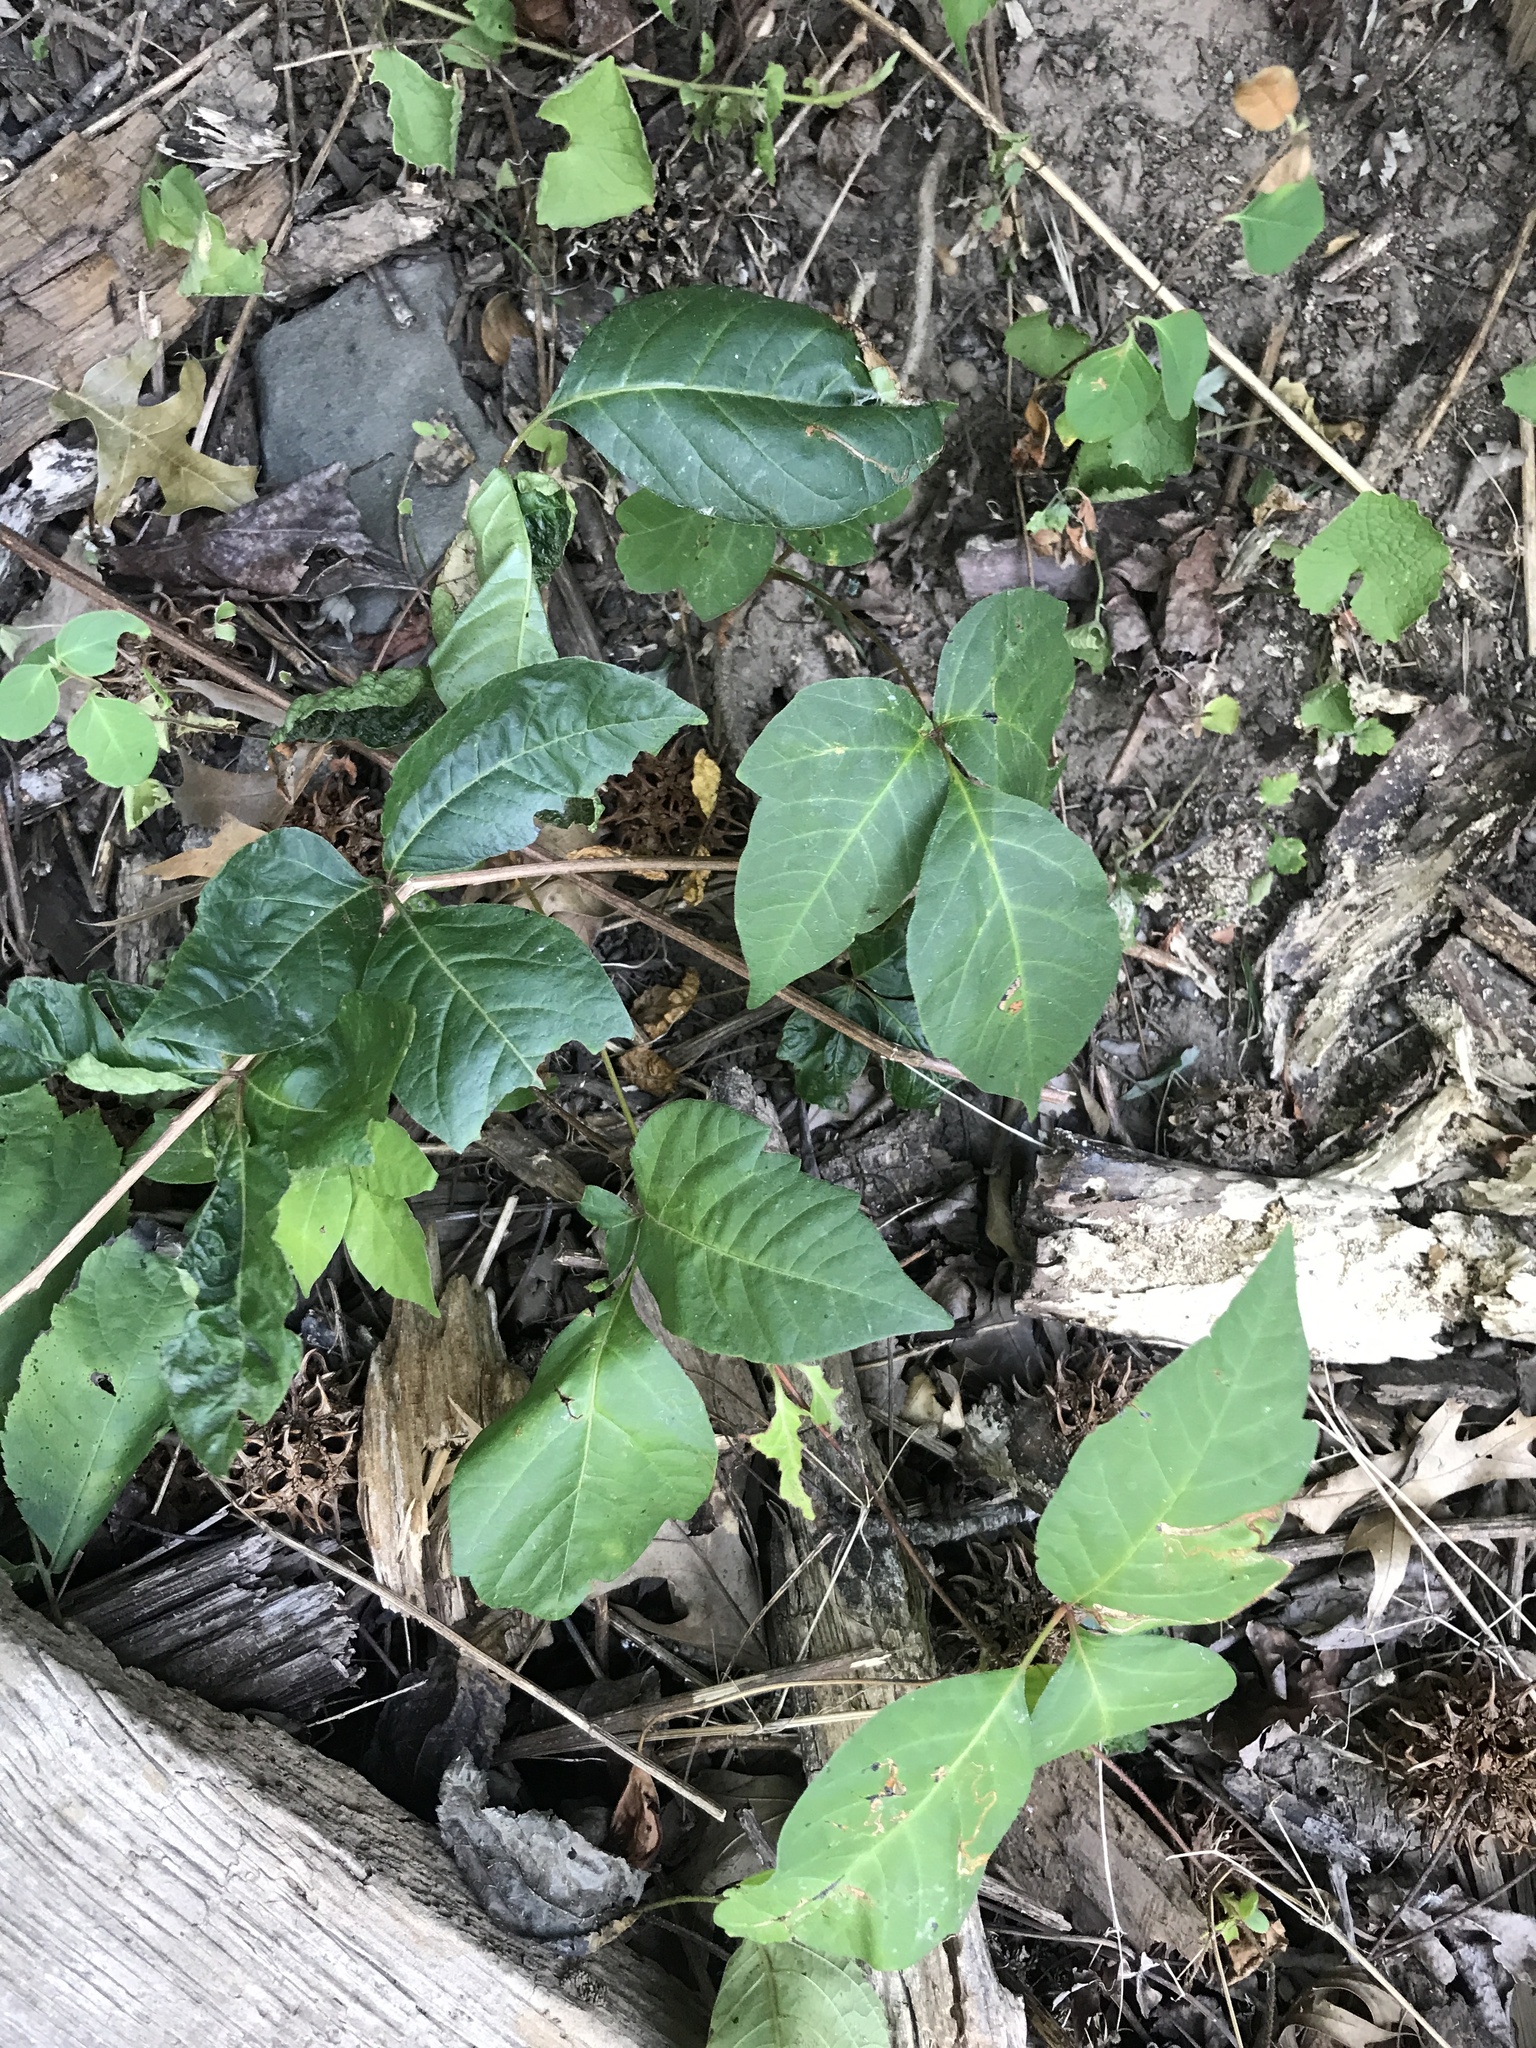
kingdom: Plantae
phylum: Tracheophyta
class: Magnoliopsida
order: Sapindales
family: Anacardiaceae
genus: Toxicodendron
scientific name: Toxicodendron radicans
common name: Poison ivy
